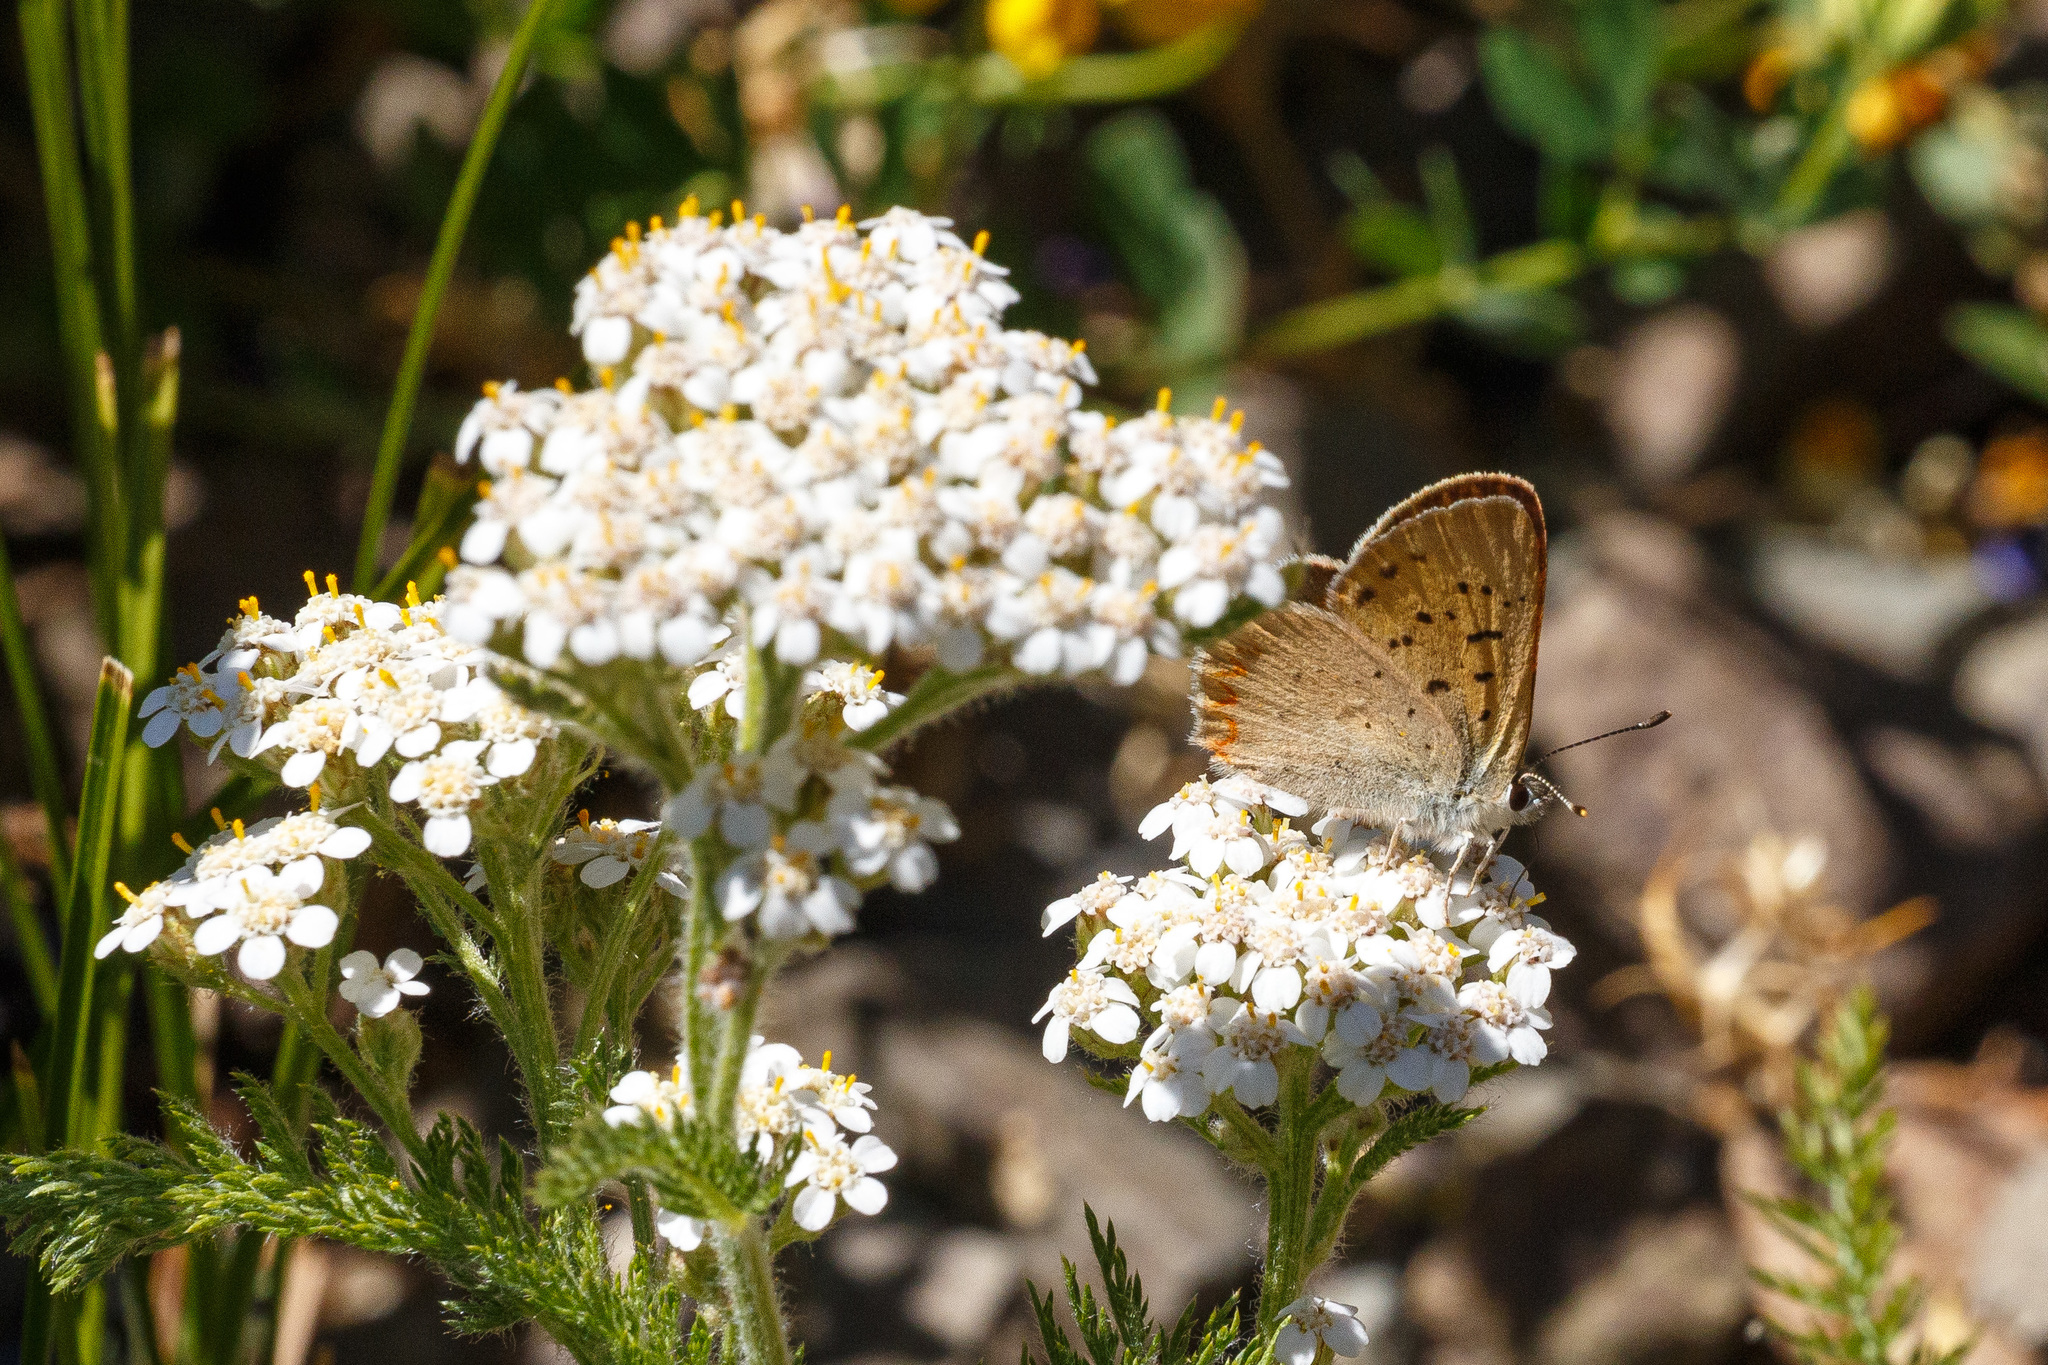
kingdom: Animalia
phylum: Arthropoda
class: Insecta
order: Lepidoptera
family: Lycaenidae
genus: Tharsalea
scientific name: Tharsalea helloides
